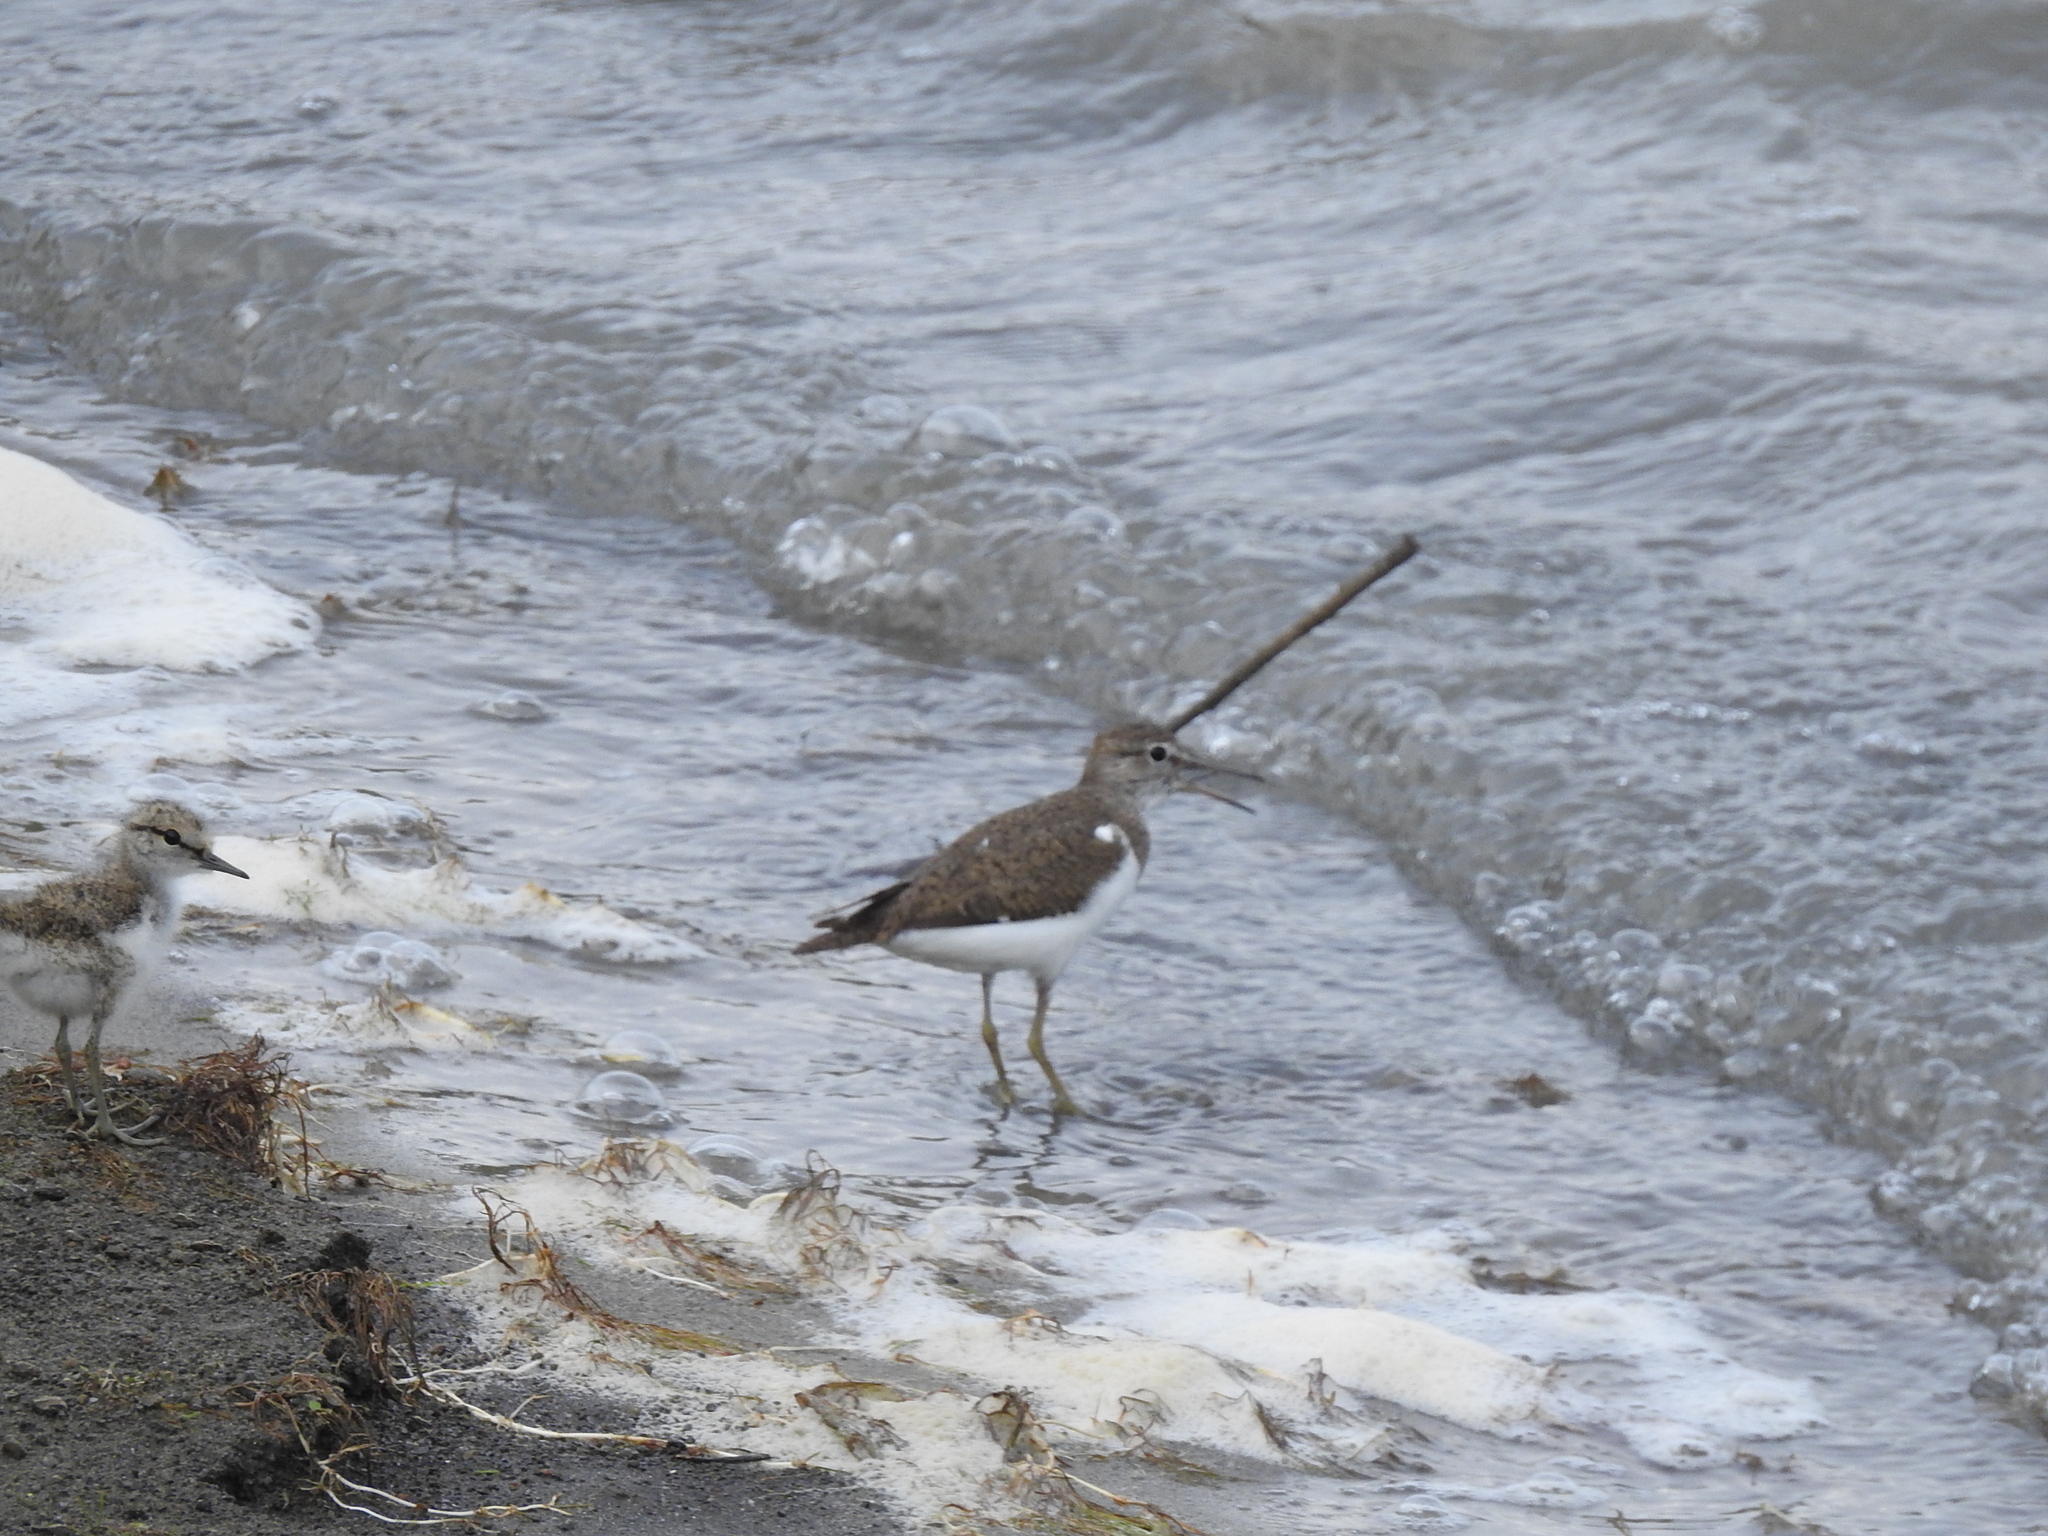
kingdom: Animalia
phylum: Chordata
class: Aves
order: Charadriiformes
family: Scolopacidae
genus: Actitis
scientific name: Actitis hypoleucos
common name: Common sandpiper
